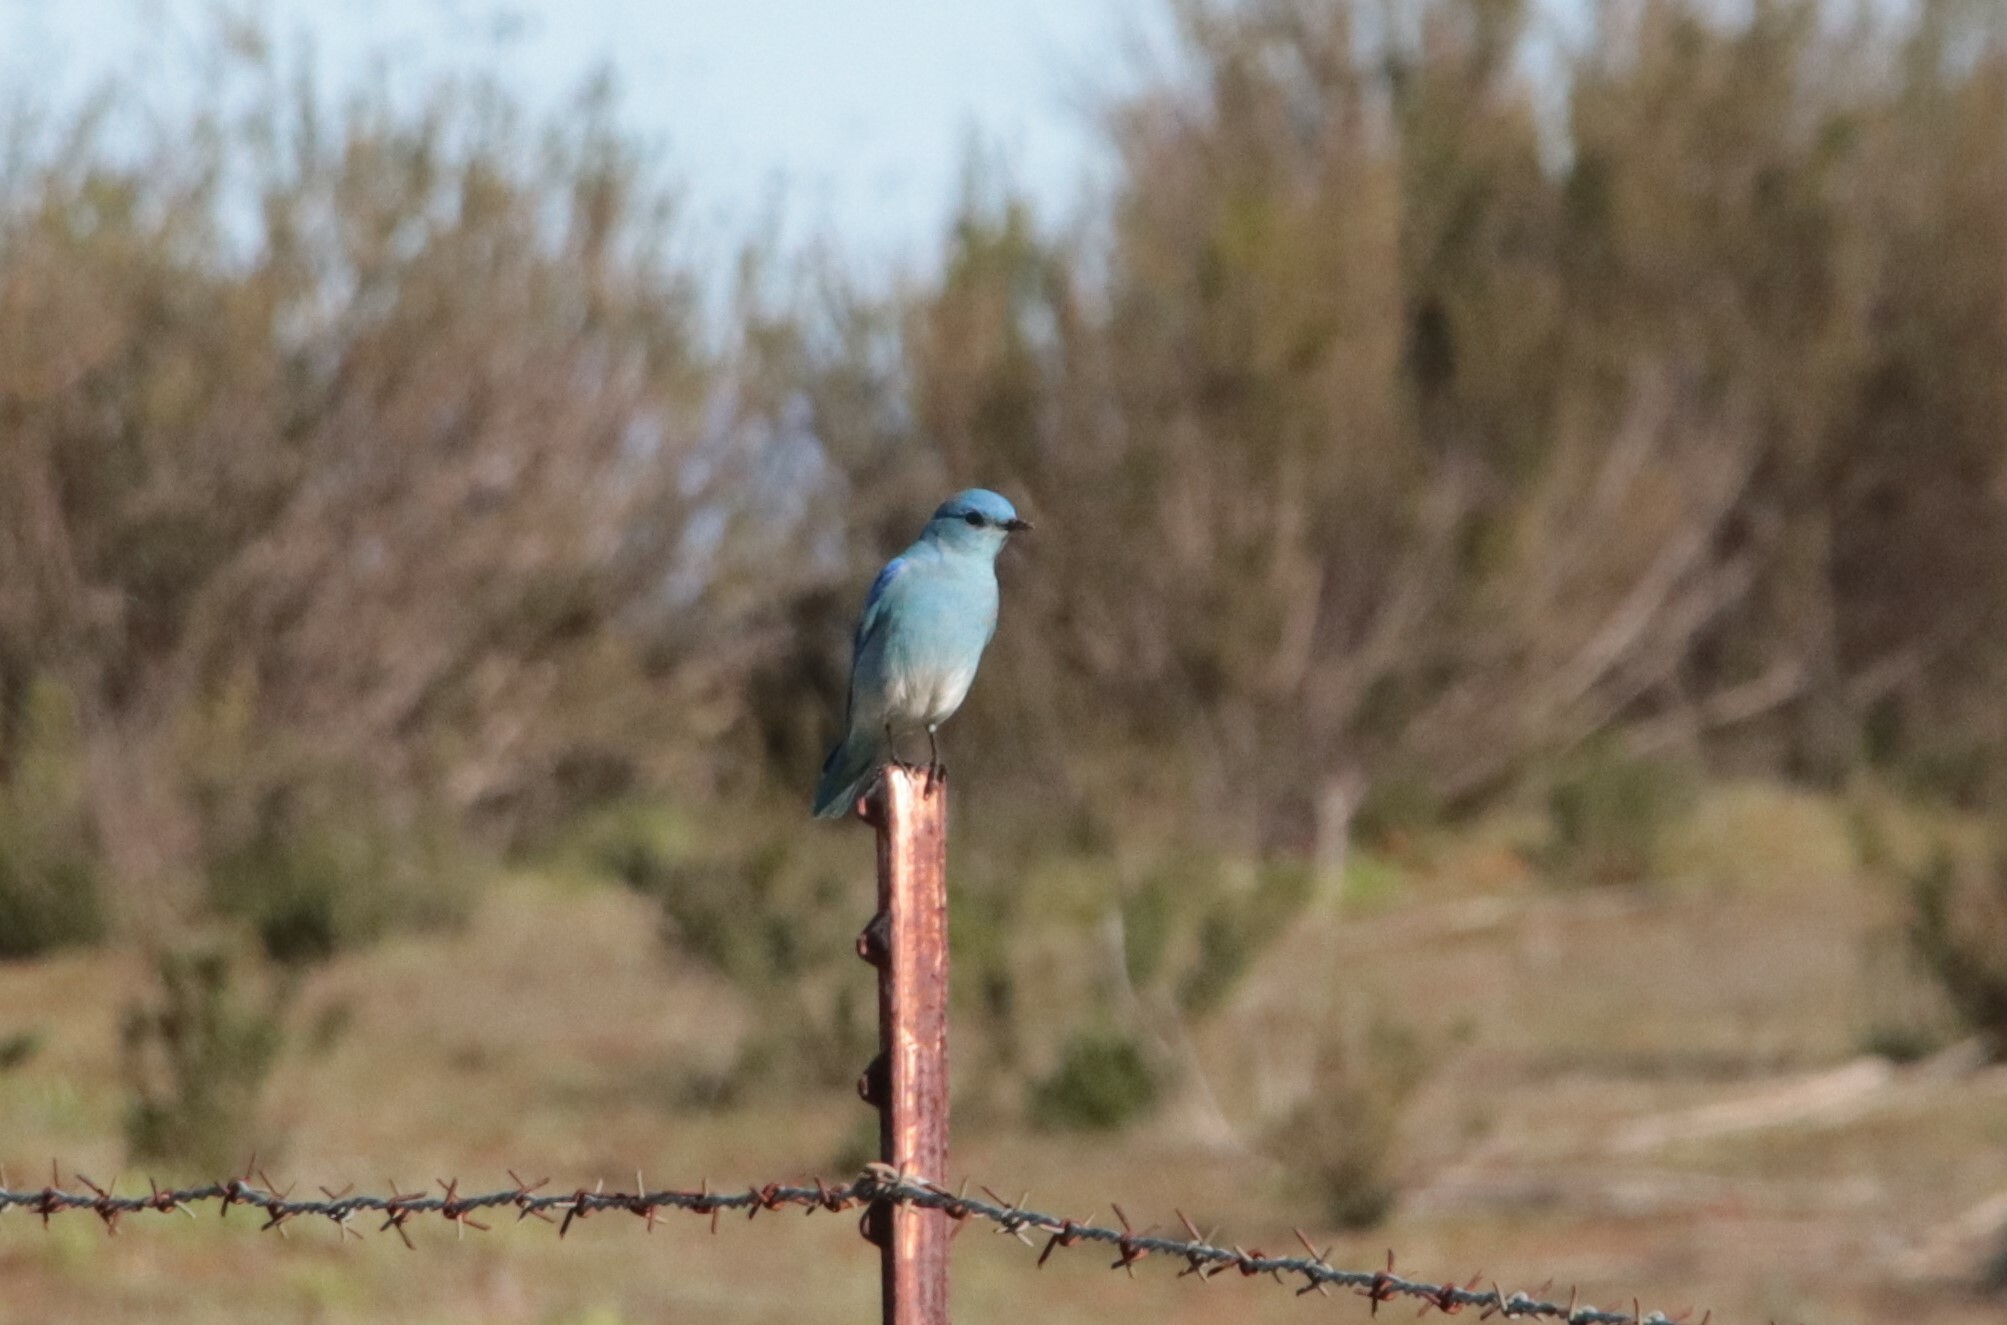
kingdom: Animalia
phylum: Chordata
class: Aves
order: Passeriformes
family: Turdidae
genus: Sialia
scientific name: Sialia currucoides
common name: Mountain bluebird
